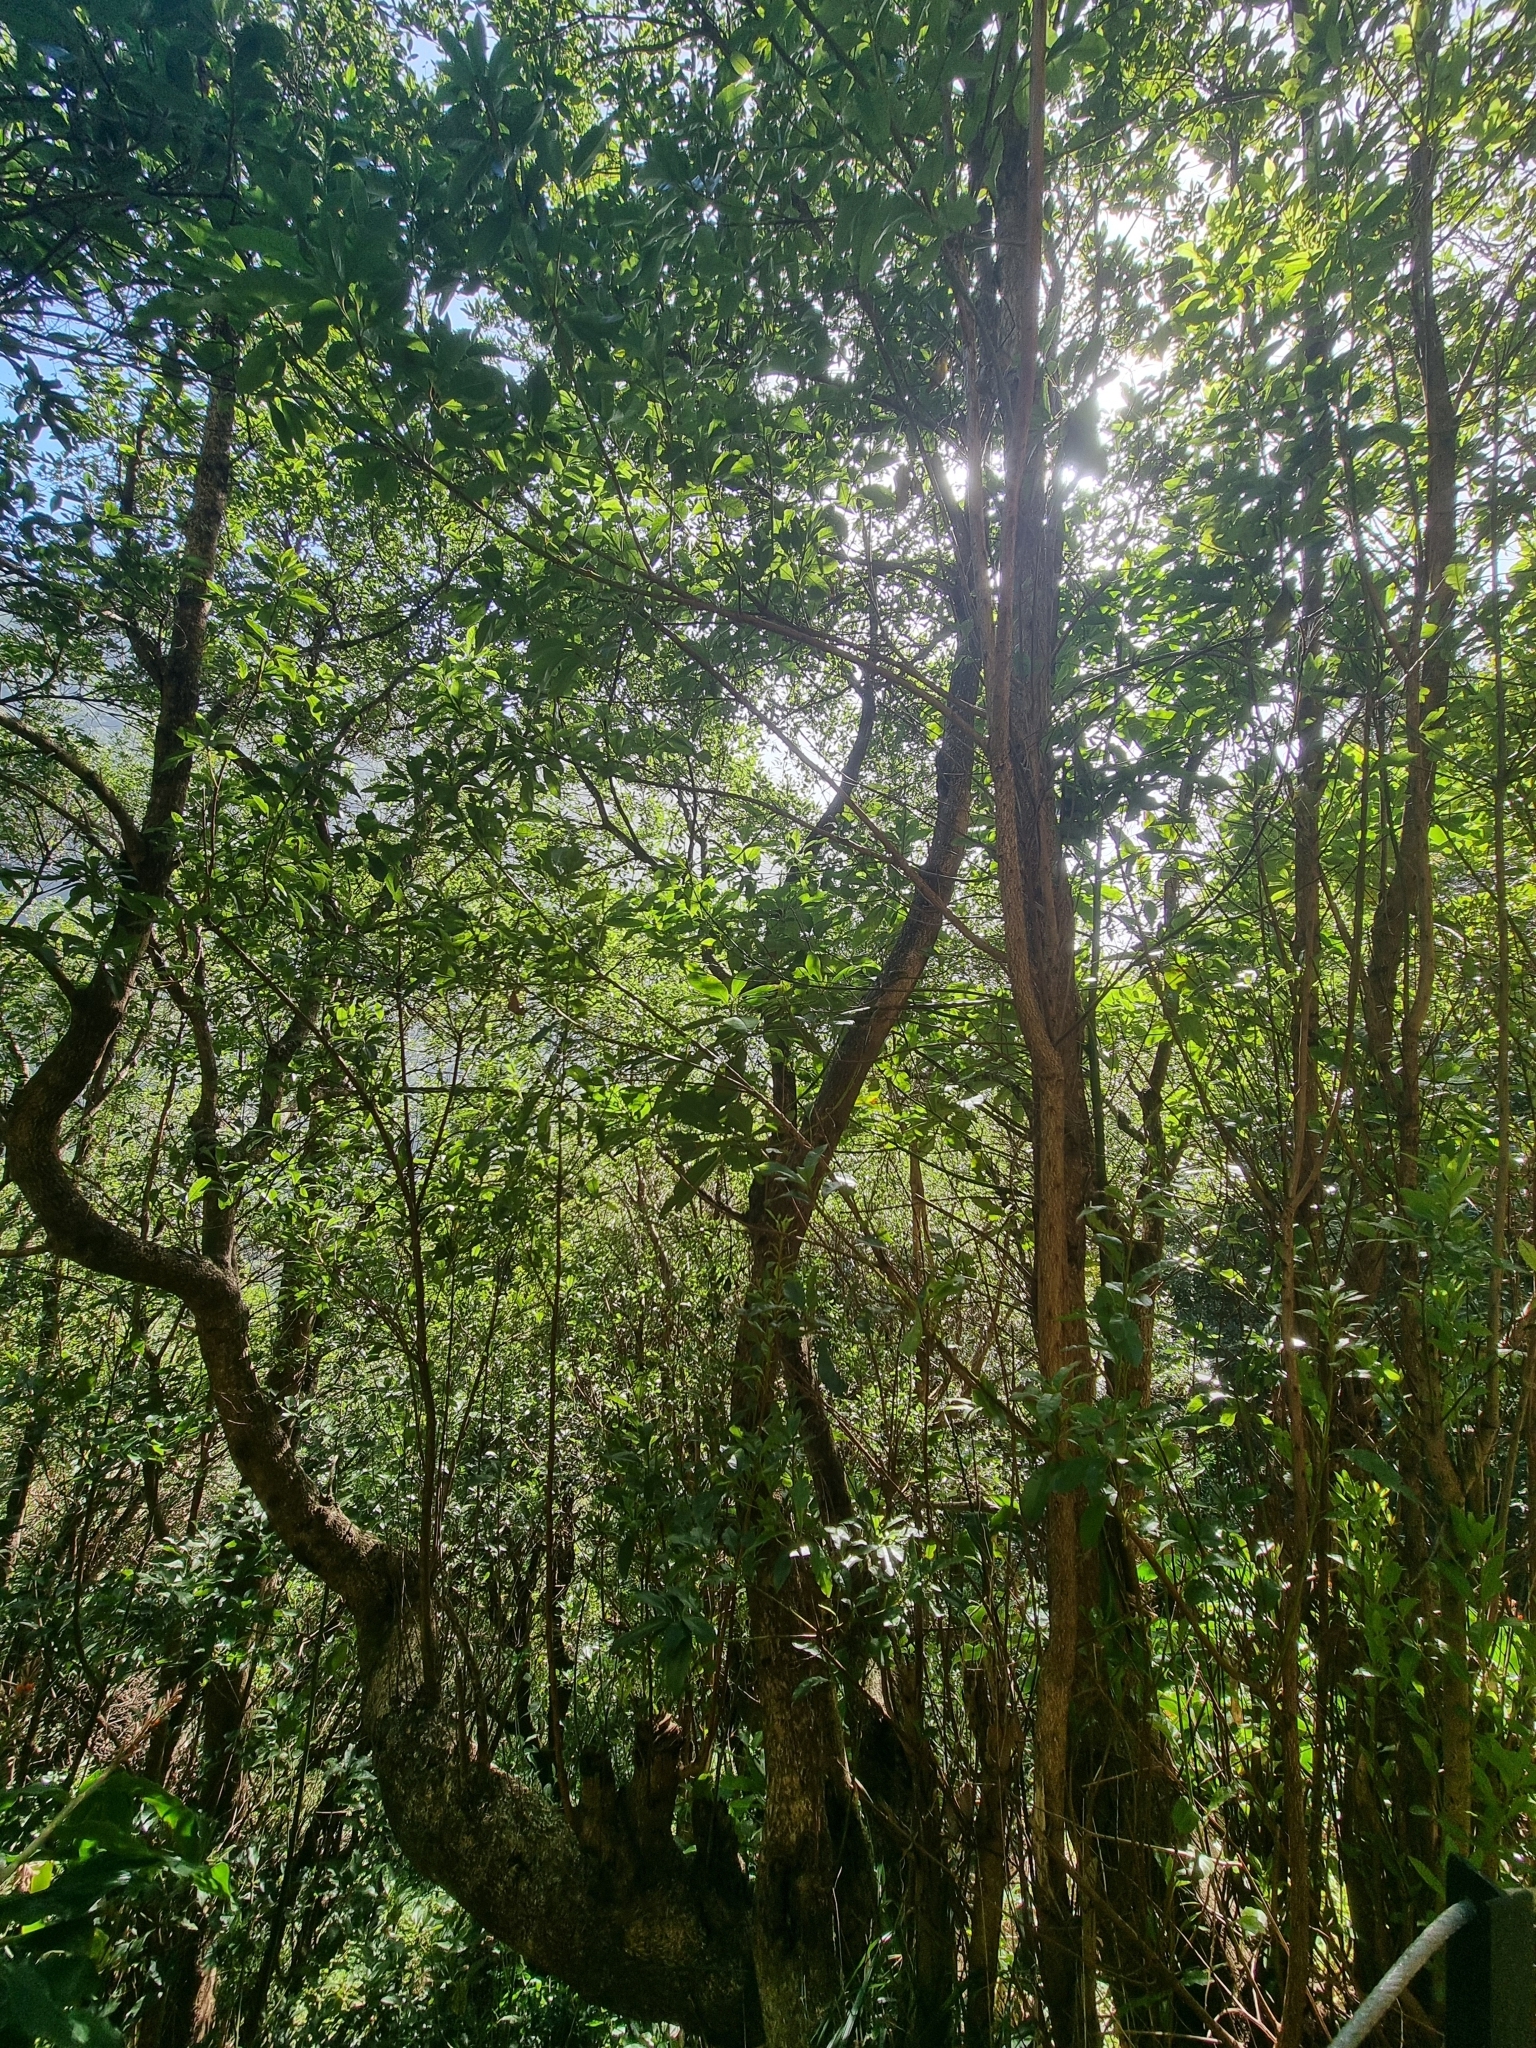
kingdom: Plantae
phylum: Tracheophyta
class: Magnoliopsida
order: Fagales
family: Myricaceae
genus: Morella
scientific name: Morella faya
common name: Firetree
